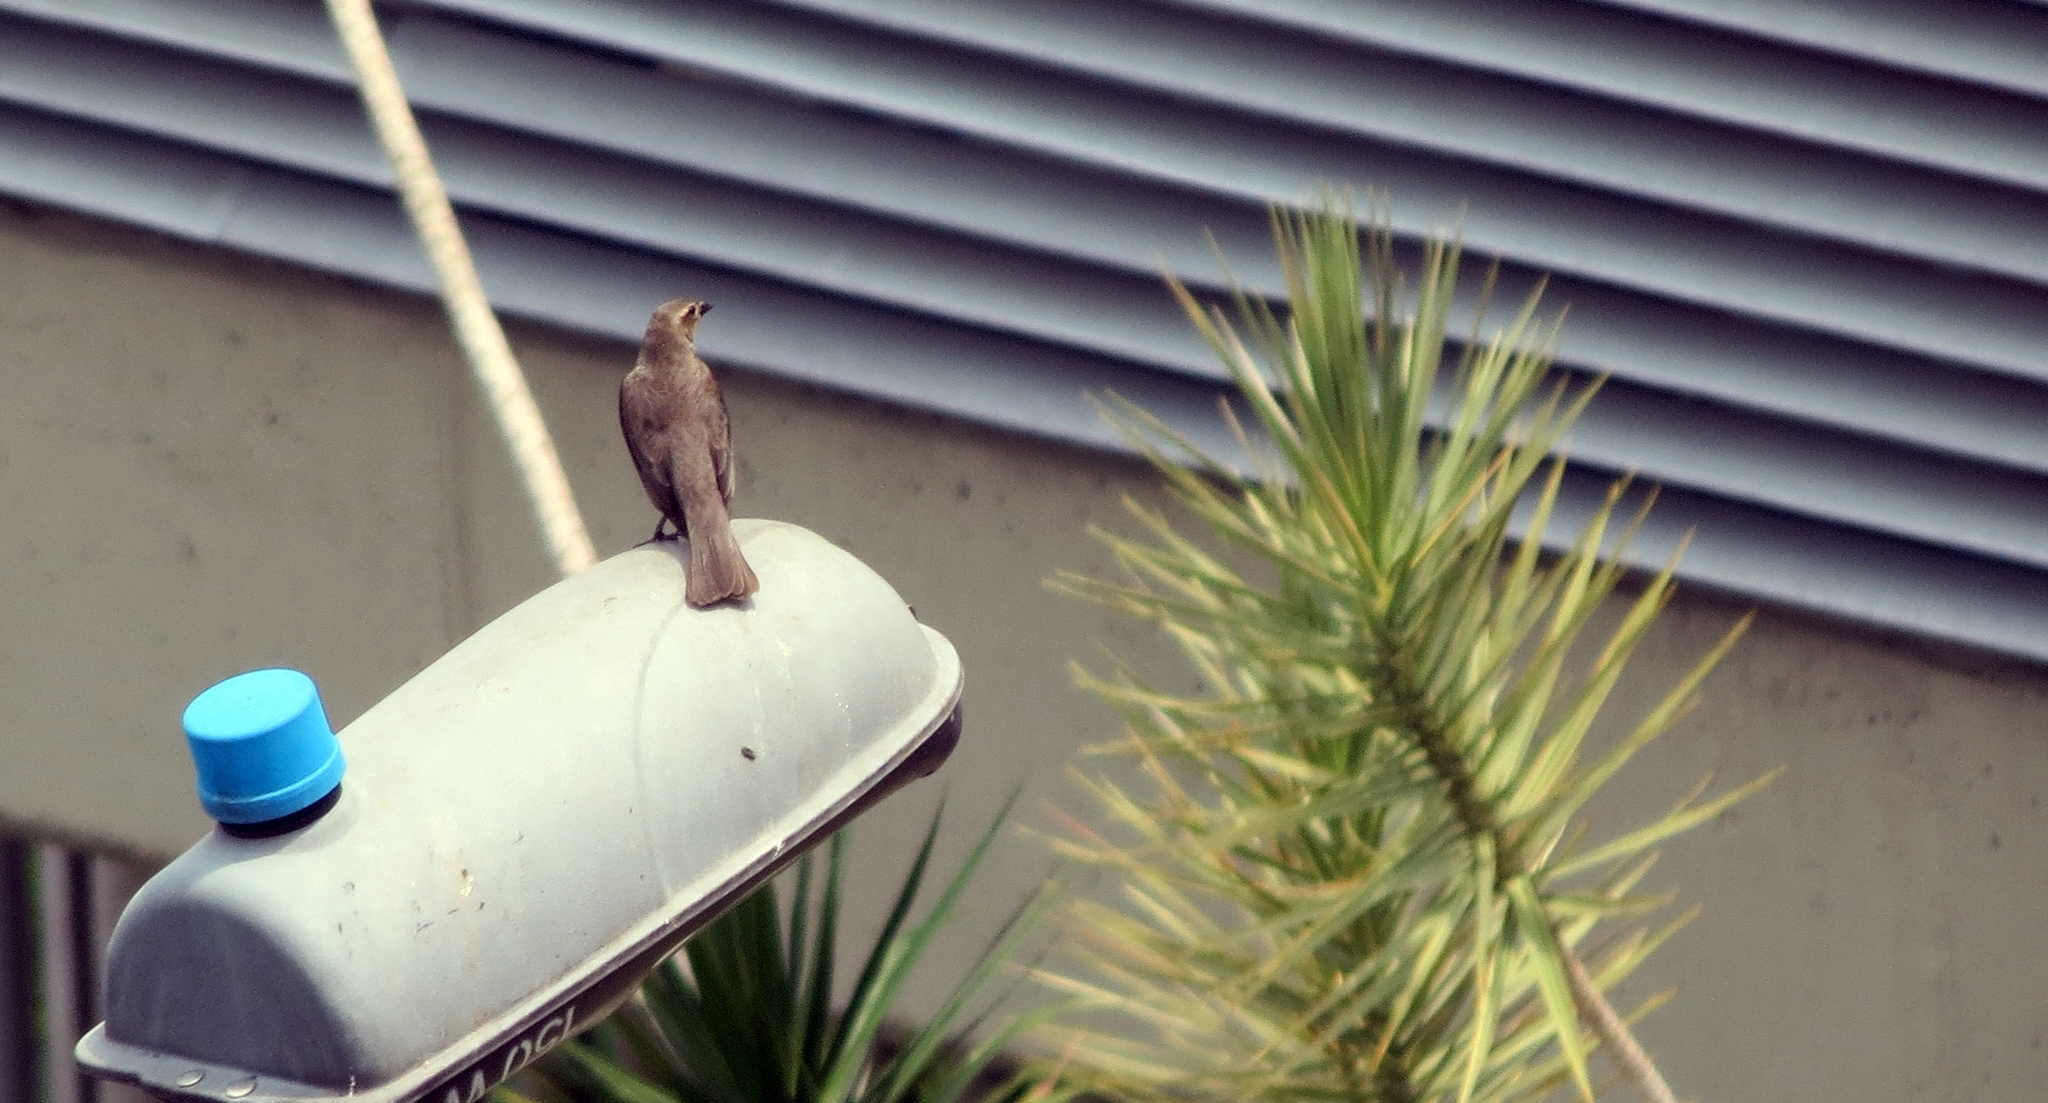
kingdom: Animalia
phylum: Chordata
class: Aves
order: Passeriformes
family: Icteridae
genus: Molothrus
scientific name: Molothrus bonariensis
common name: Shiny cowbird
